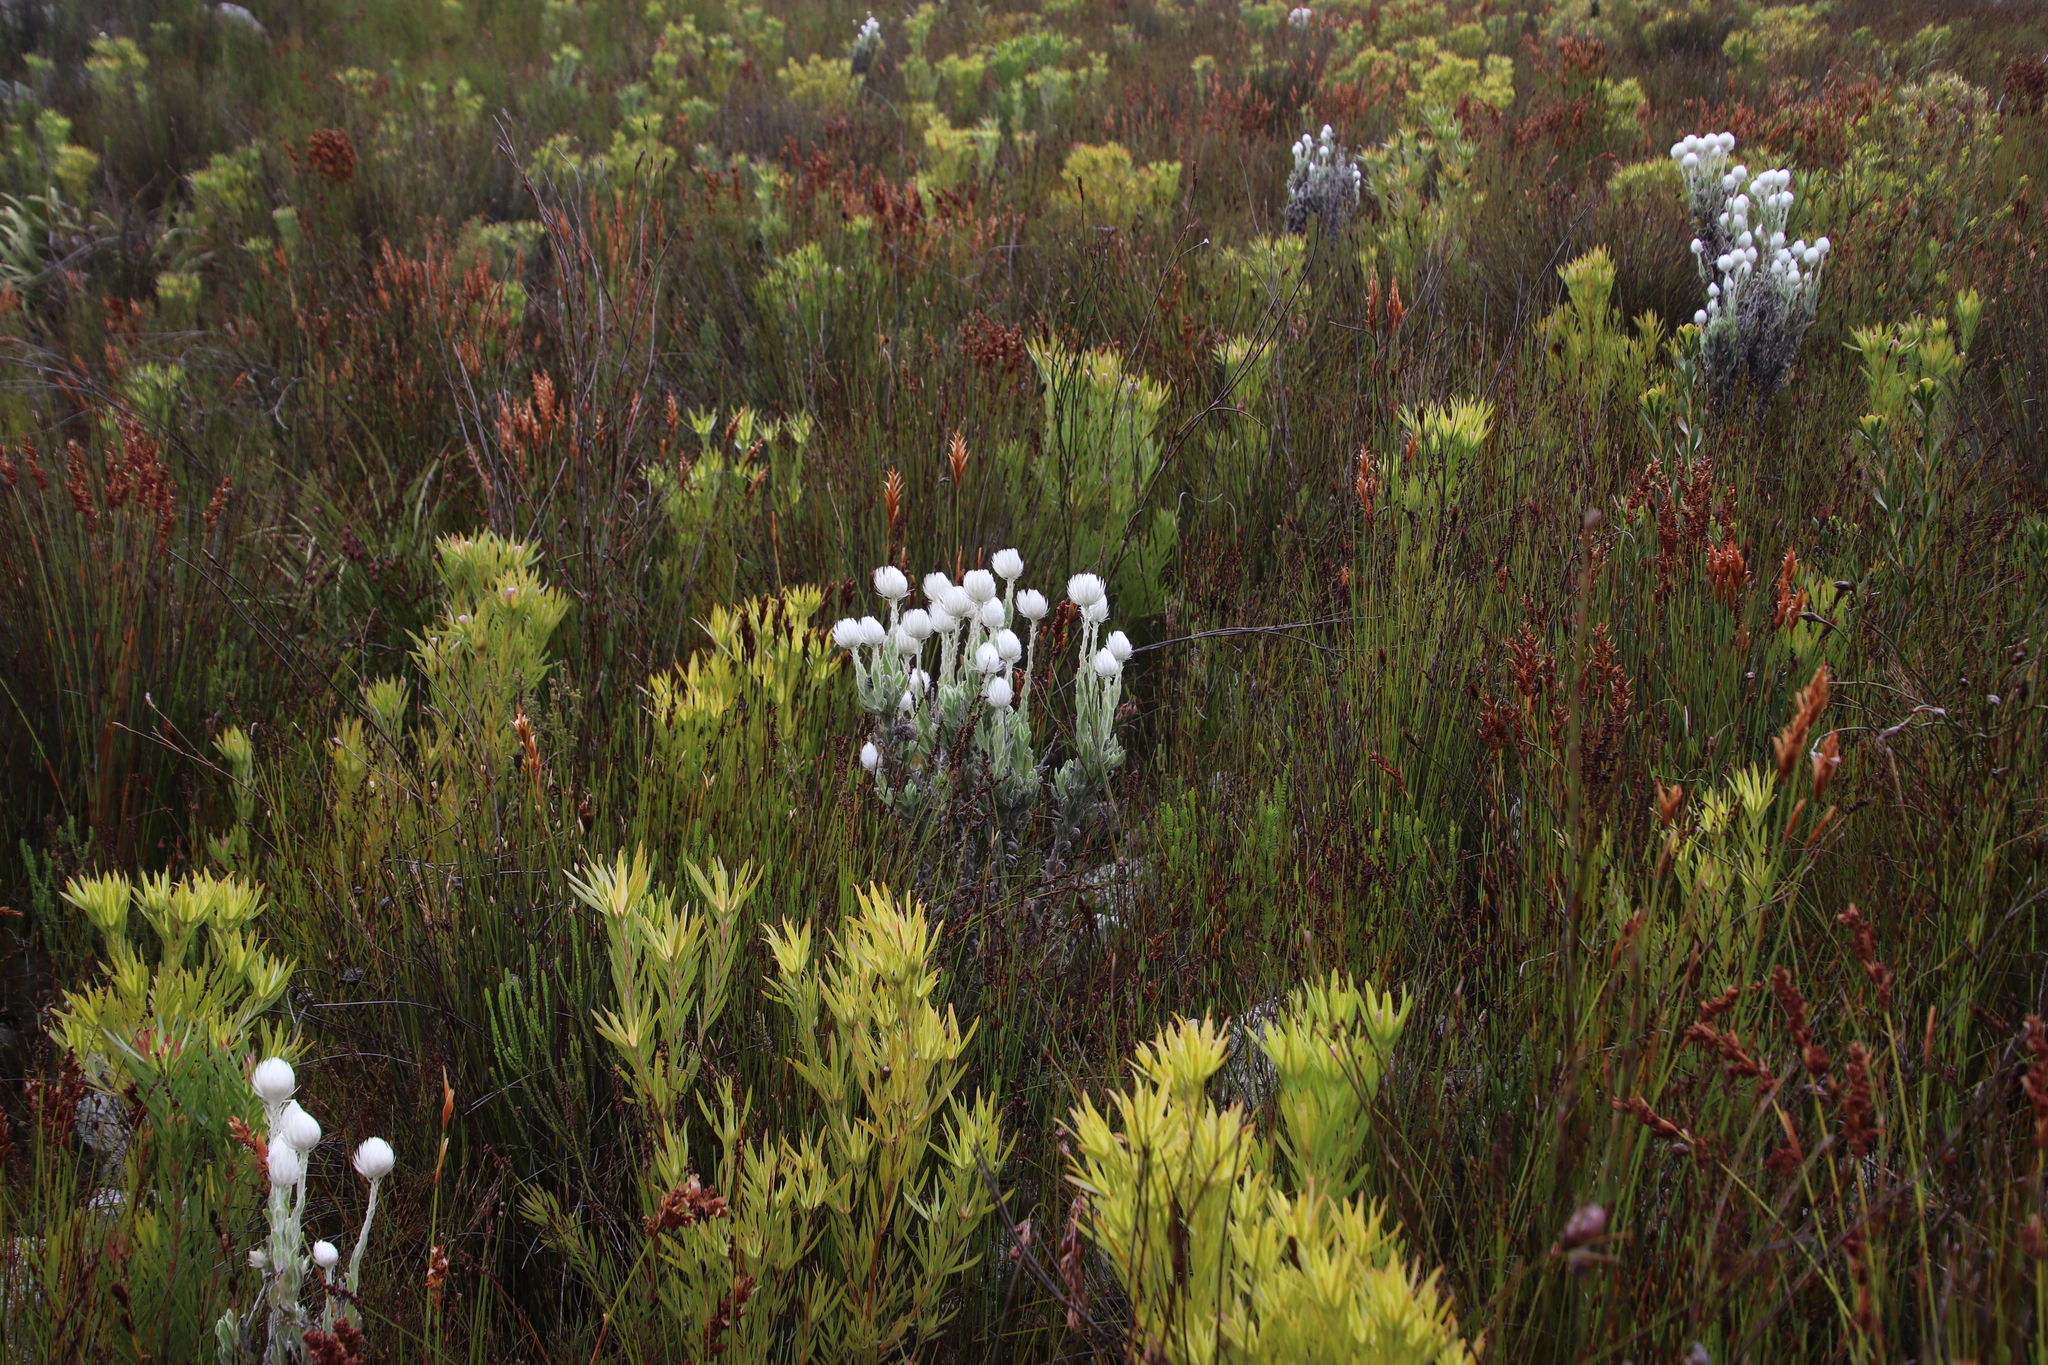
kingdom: Plantae
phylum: Tracheophyta
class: Magnoliopsida
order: Asterales
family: Asteraceae
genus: Syncarpha
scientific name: Syncarpha vestita
